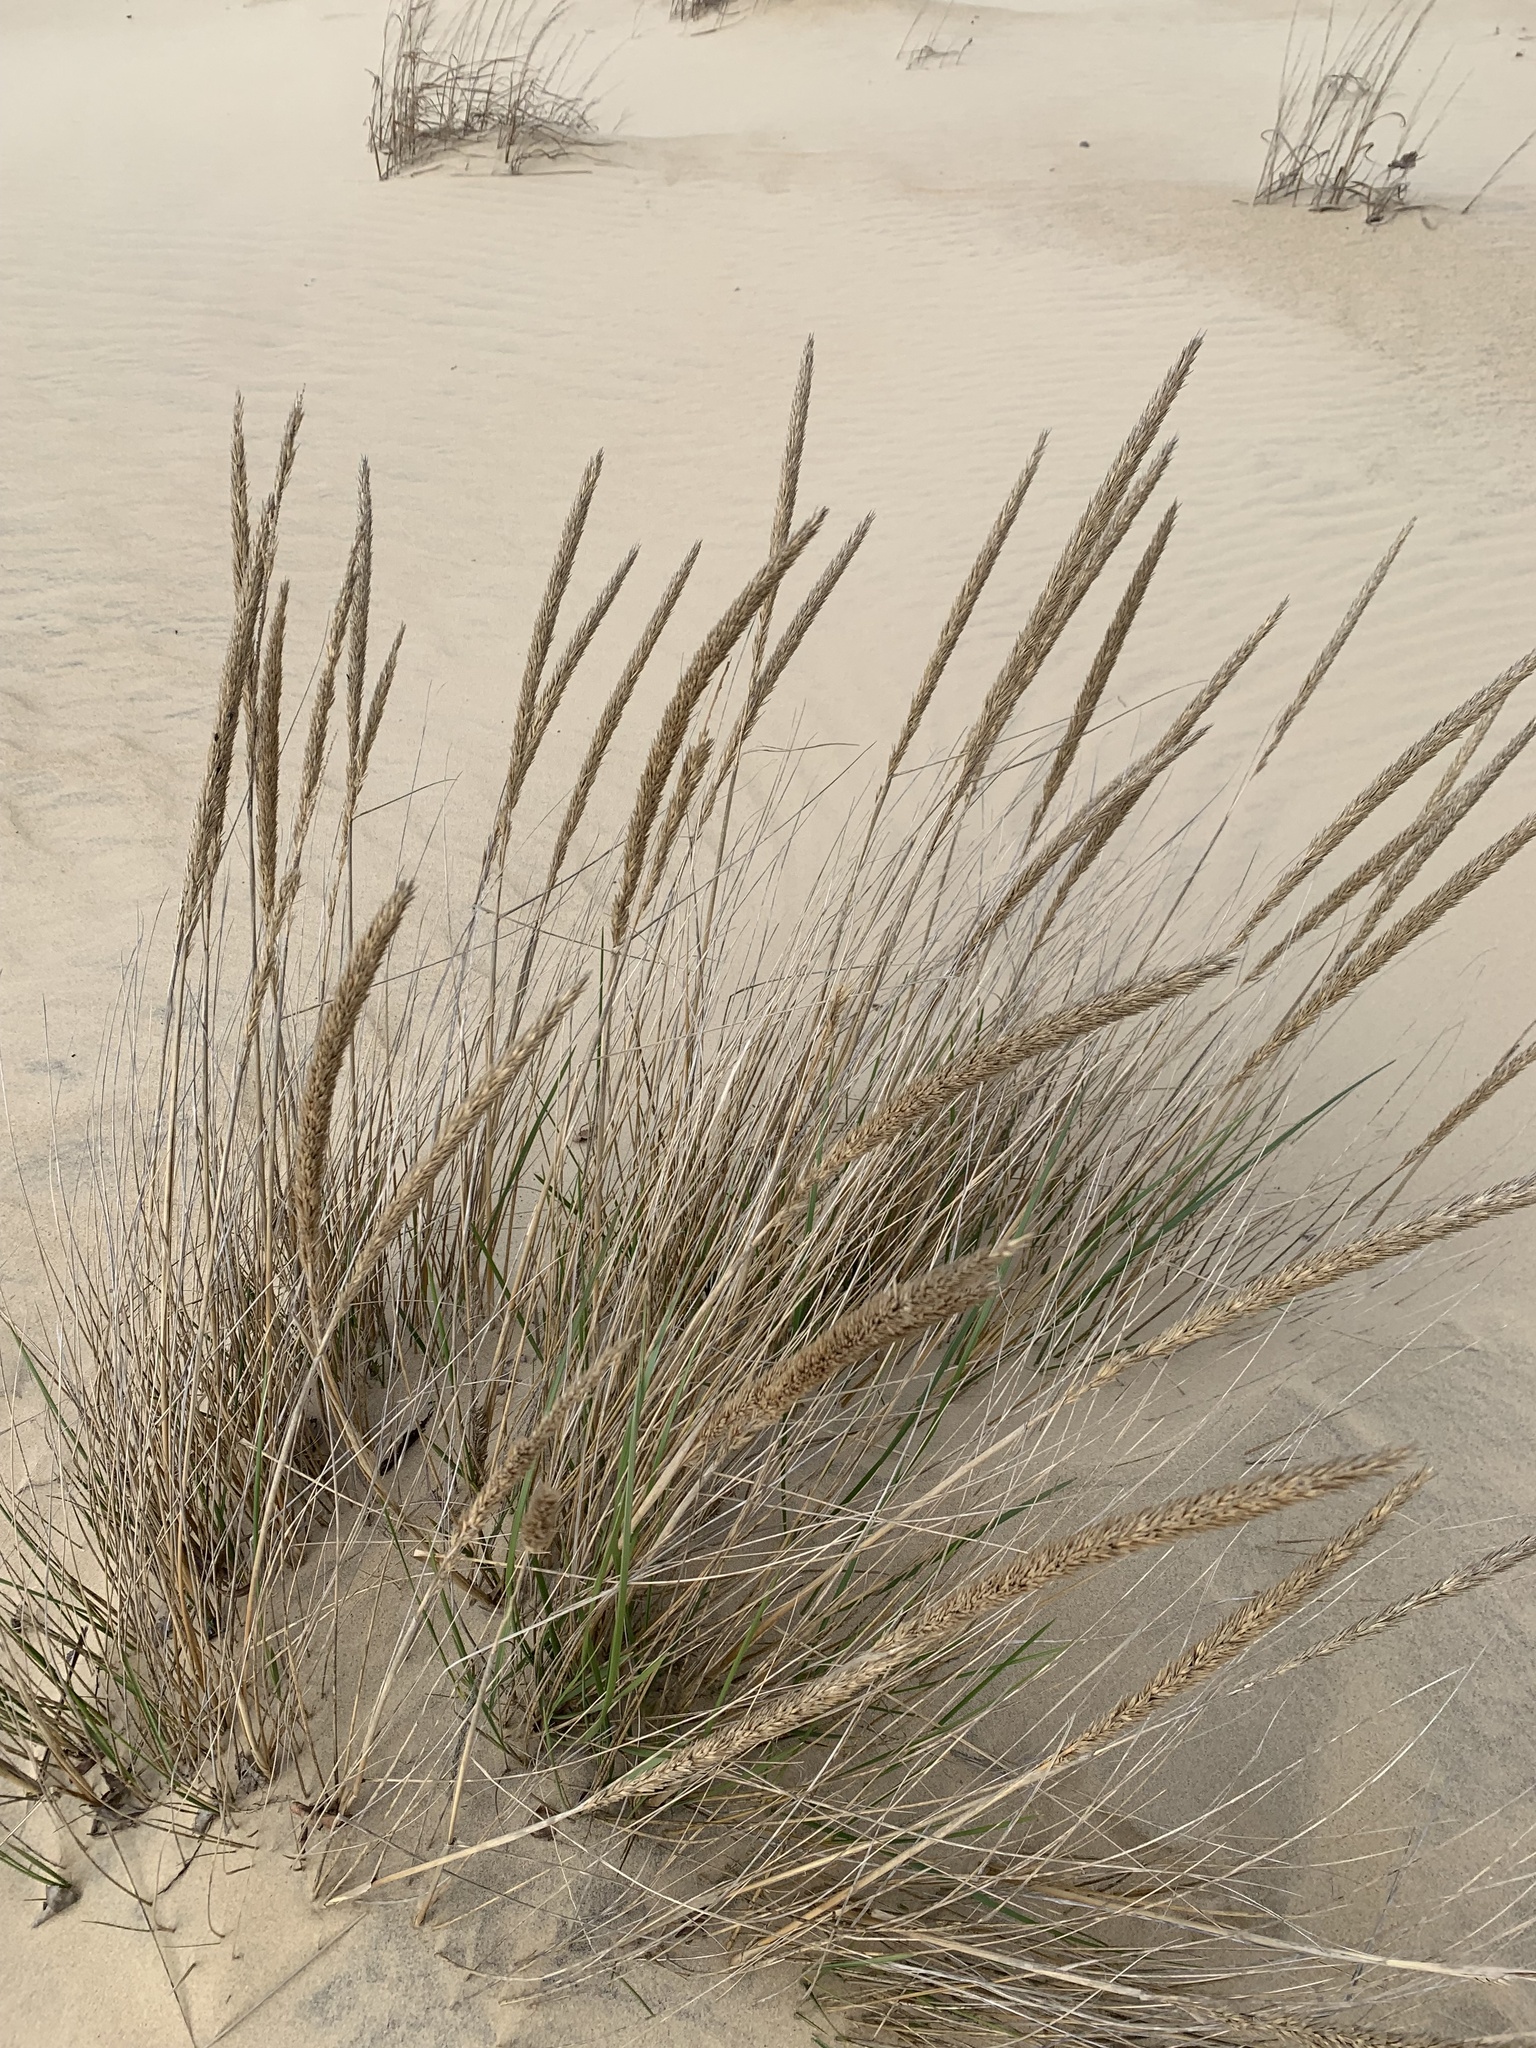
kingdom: Plantae
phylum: Tracheophyta
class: Liliopsida
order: Poales
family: Poaceae
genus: Calamagrostis
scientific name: Calamagrostis breviligulata
